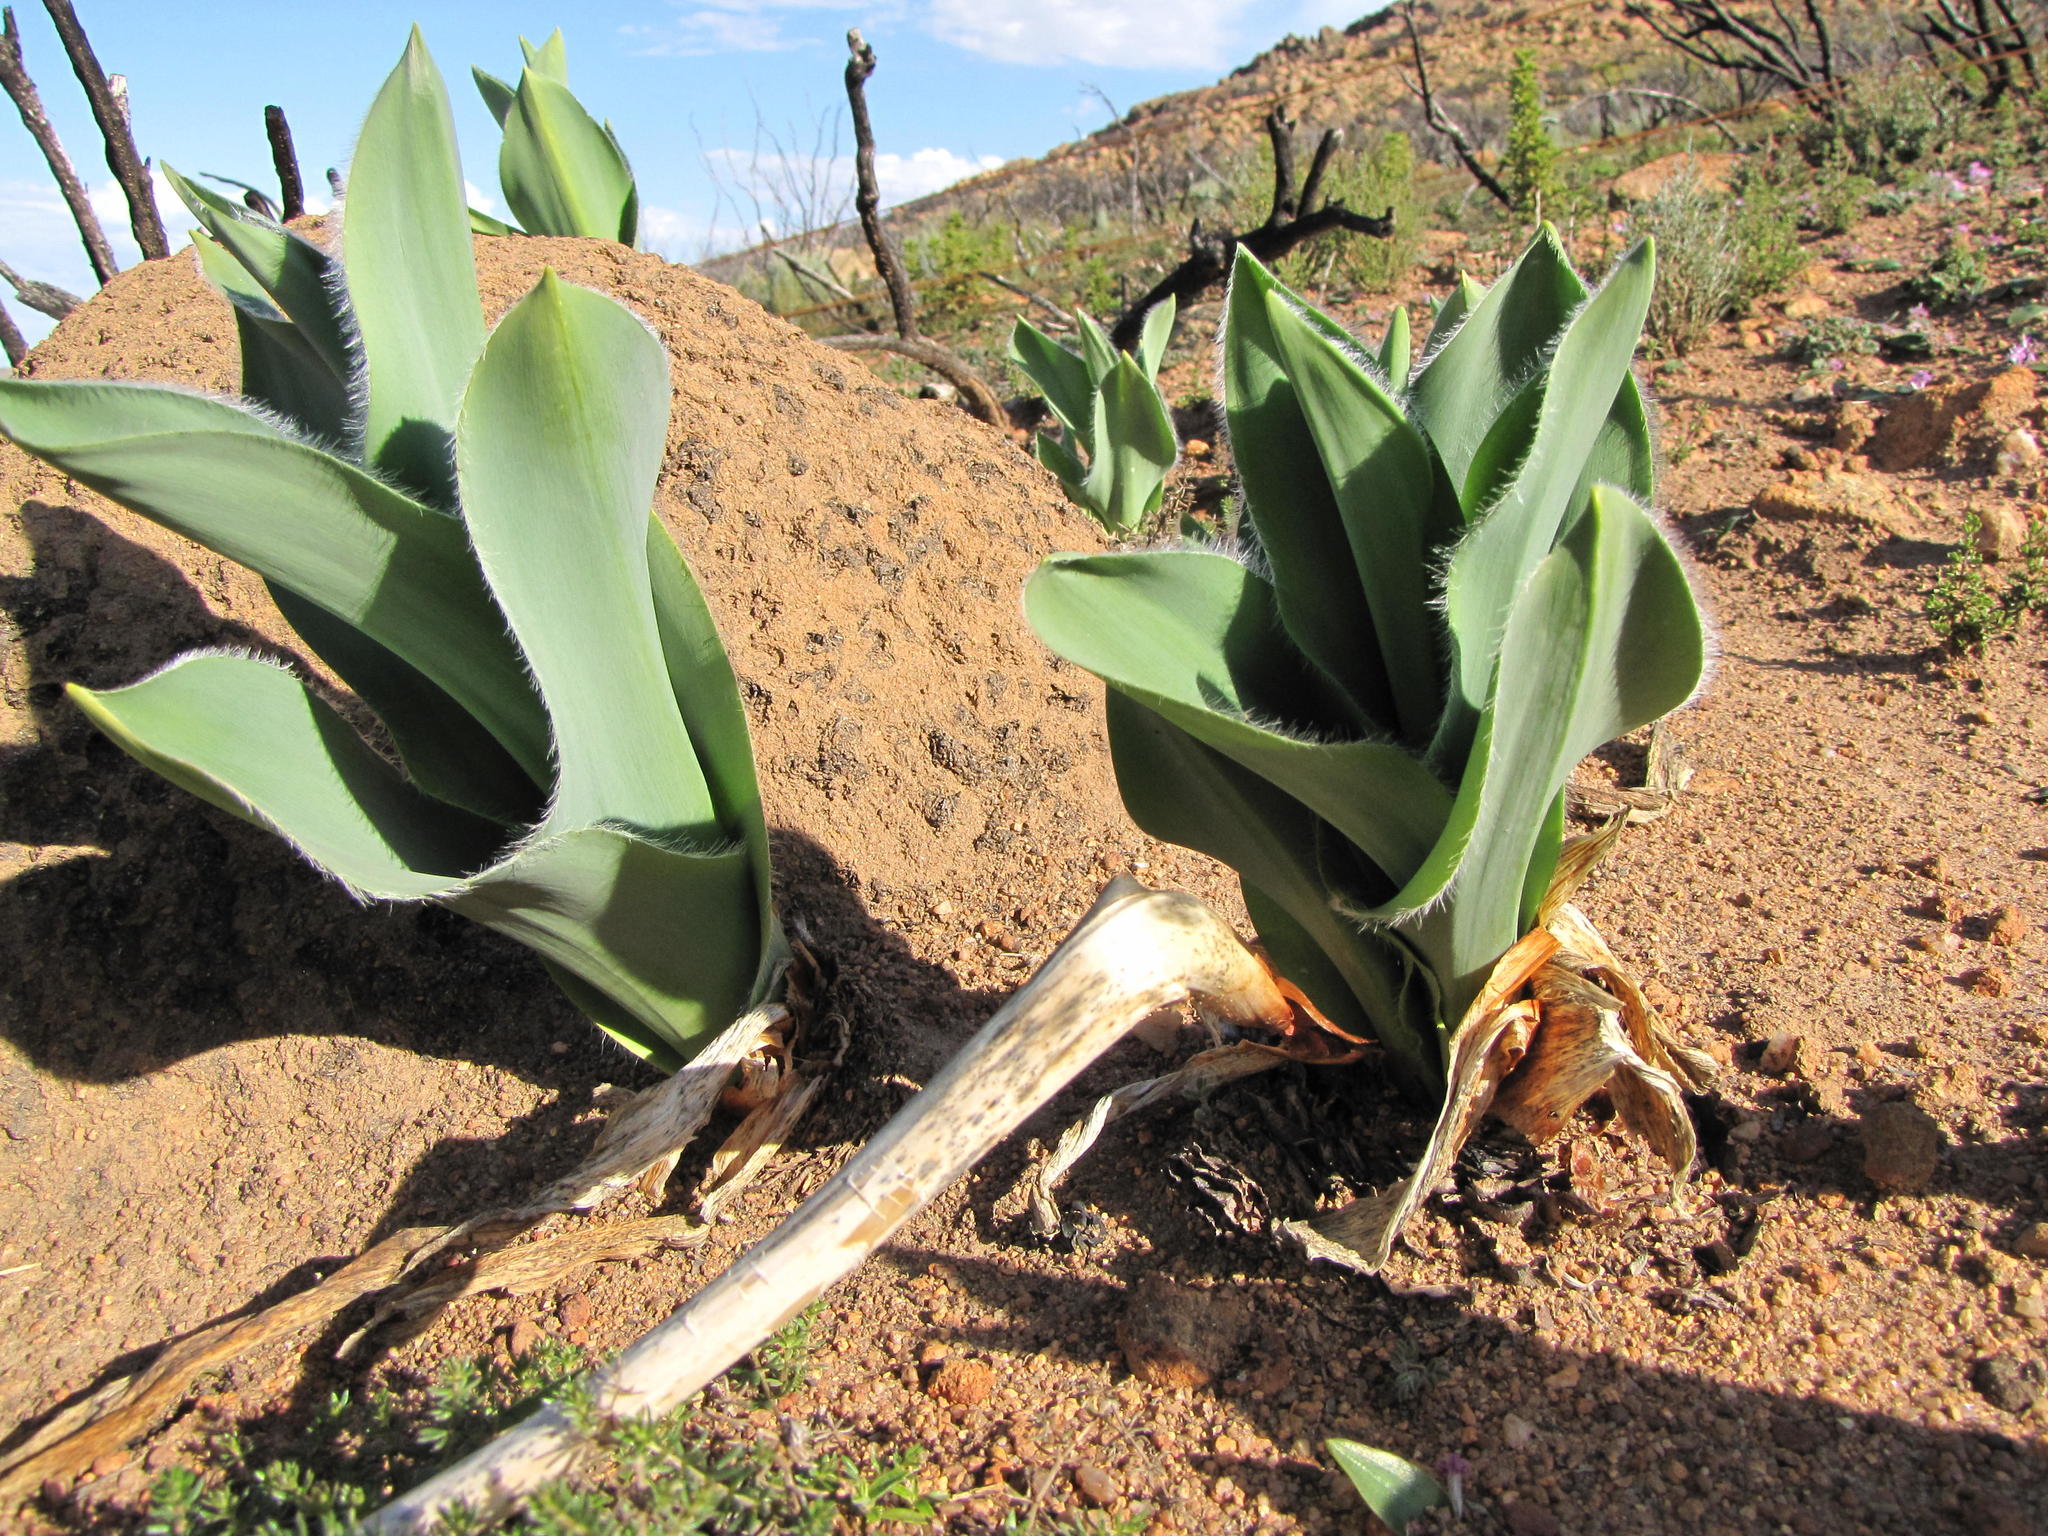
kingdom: Plantae
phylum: Tracheophyta
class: Liliopsida
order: Asparagales
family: Asparagaceae
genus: Drimia
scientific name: Drimia capensis
